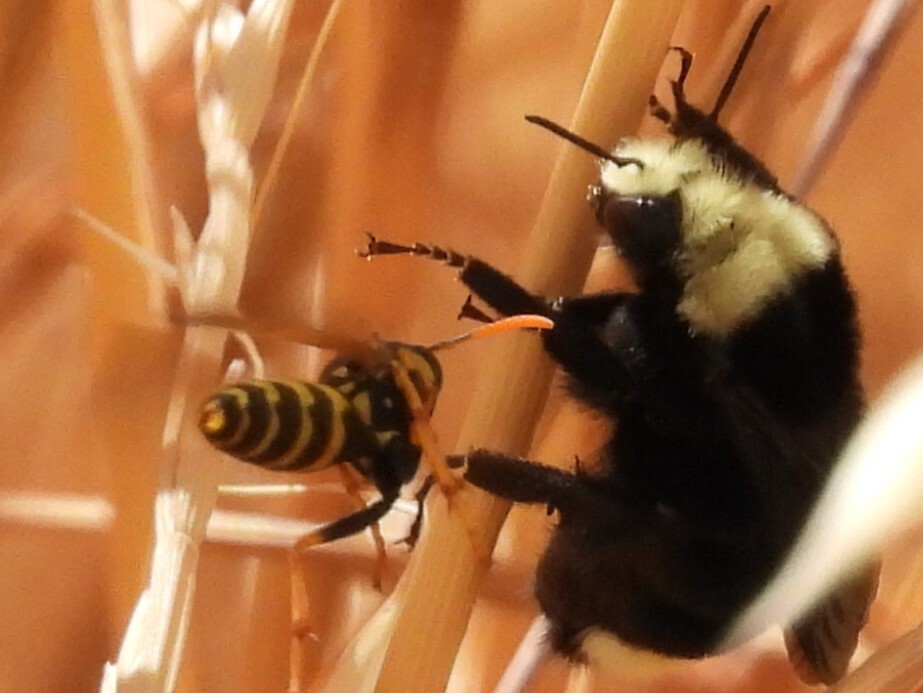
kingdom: Animalia
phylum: Arthropoda
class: Insecta
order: Hymenoptera
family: Eumenidae
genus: Polistes
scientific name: Polistes dominula
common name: Paper wasp
